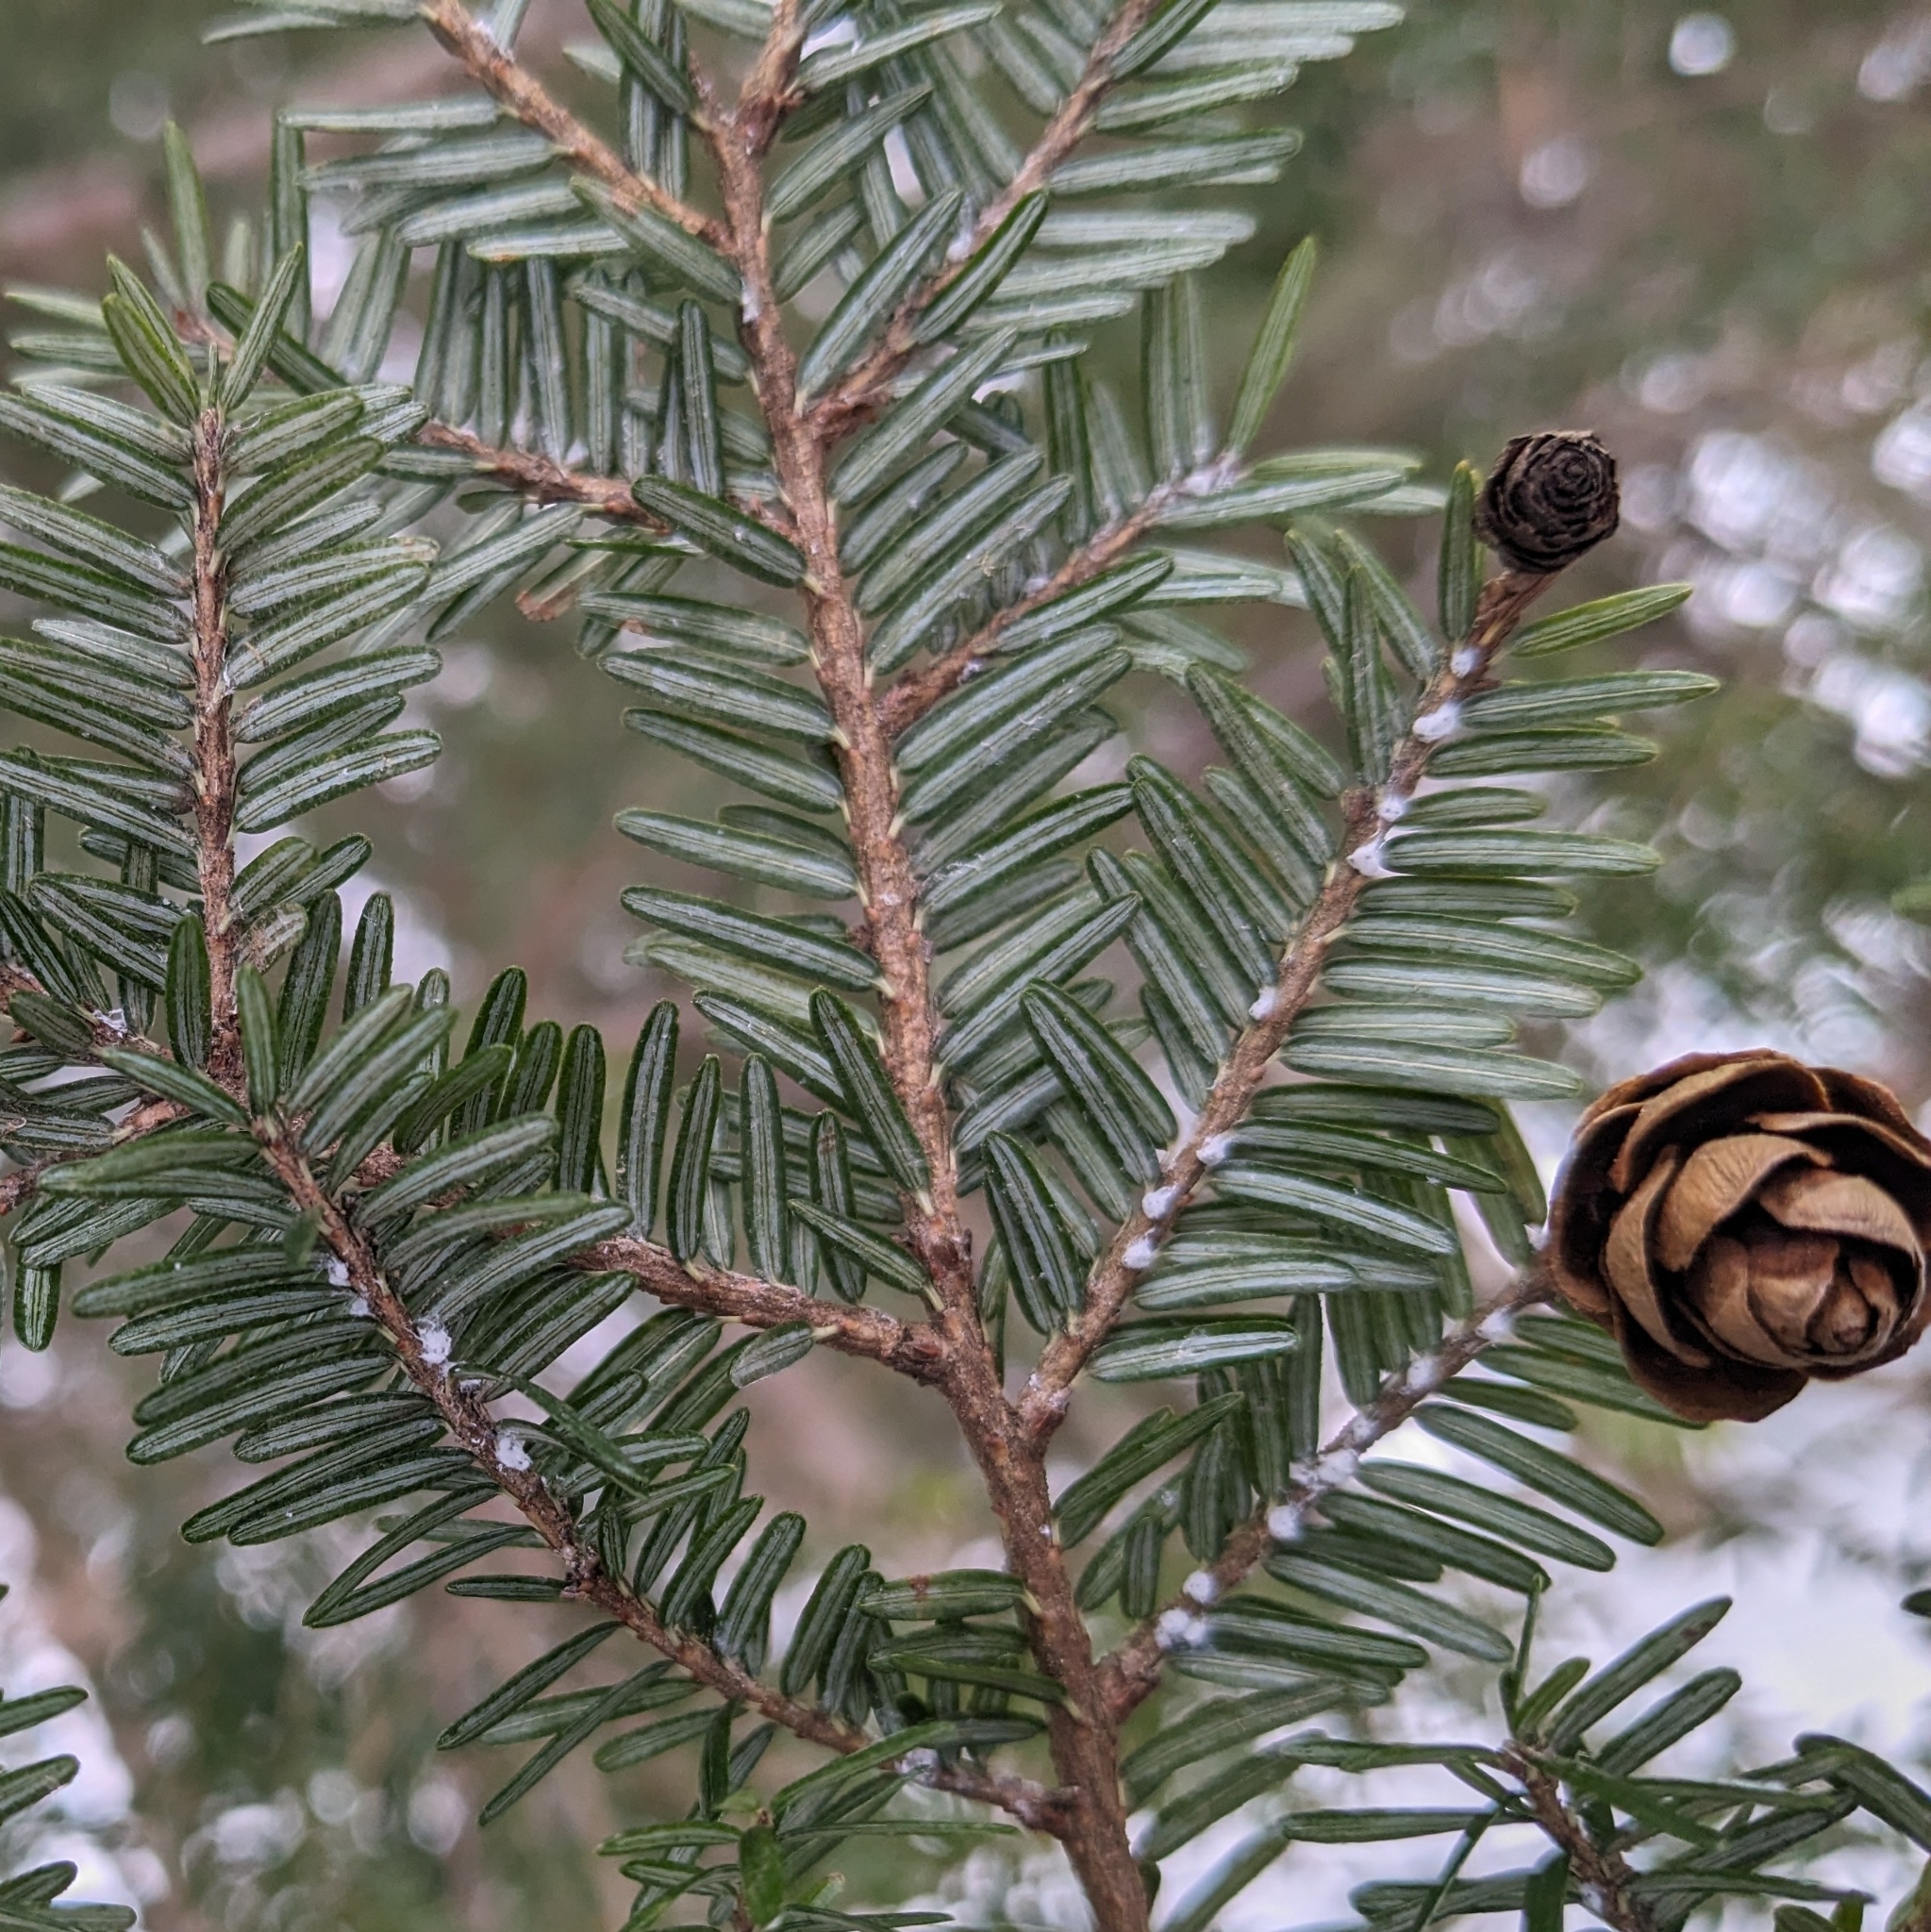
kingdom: Animalia
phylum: Arthropoda
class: Insecta
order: Hemiptera
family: Adelgidae
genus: Adelges
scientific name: Adelges tsugae
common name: Hemlock woolly adelgid
